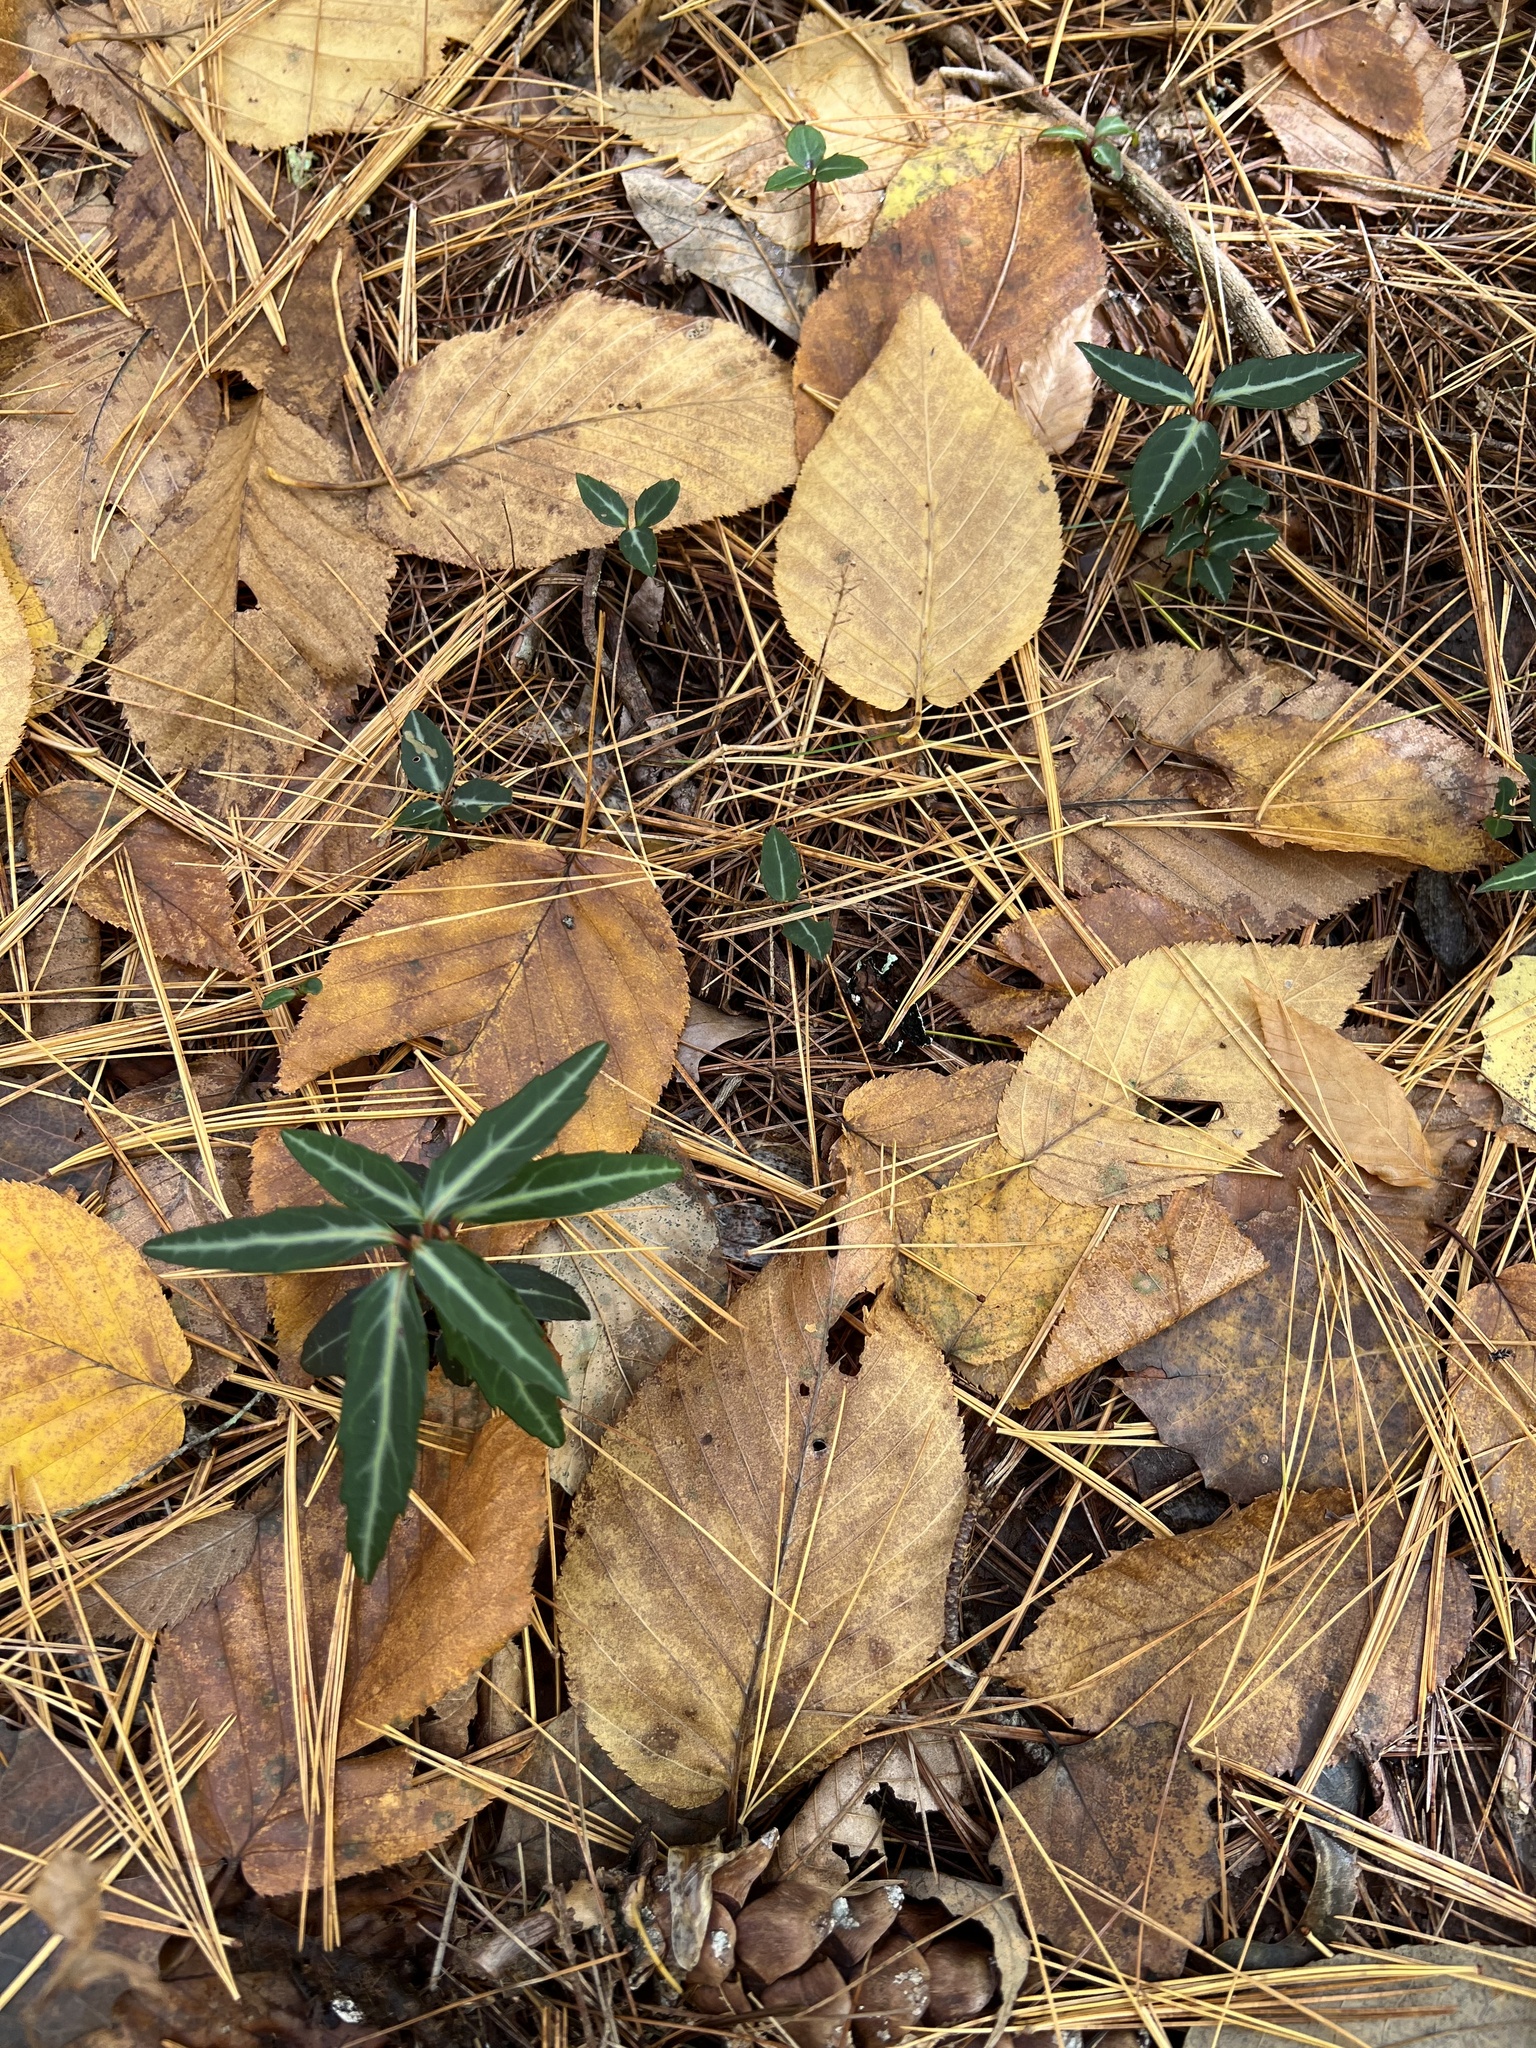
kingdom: Plantae
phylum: Tracheophyta
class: Magnoliopsida
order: Ericales
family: Ericaceae
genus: Chimaphila
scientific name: Chimaphila maculata
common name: Spotted pipsissewa
